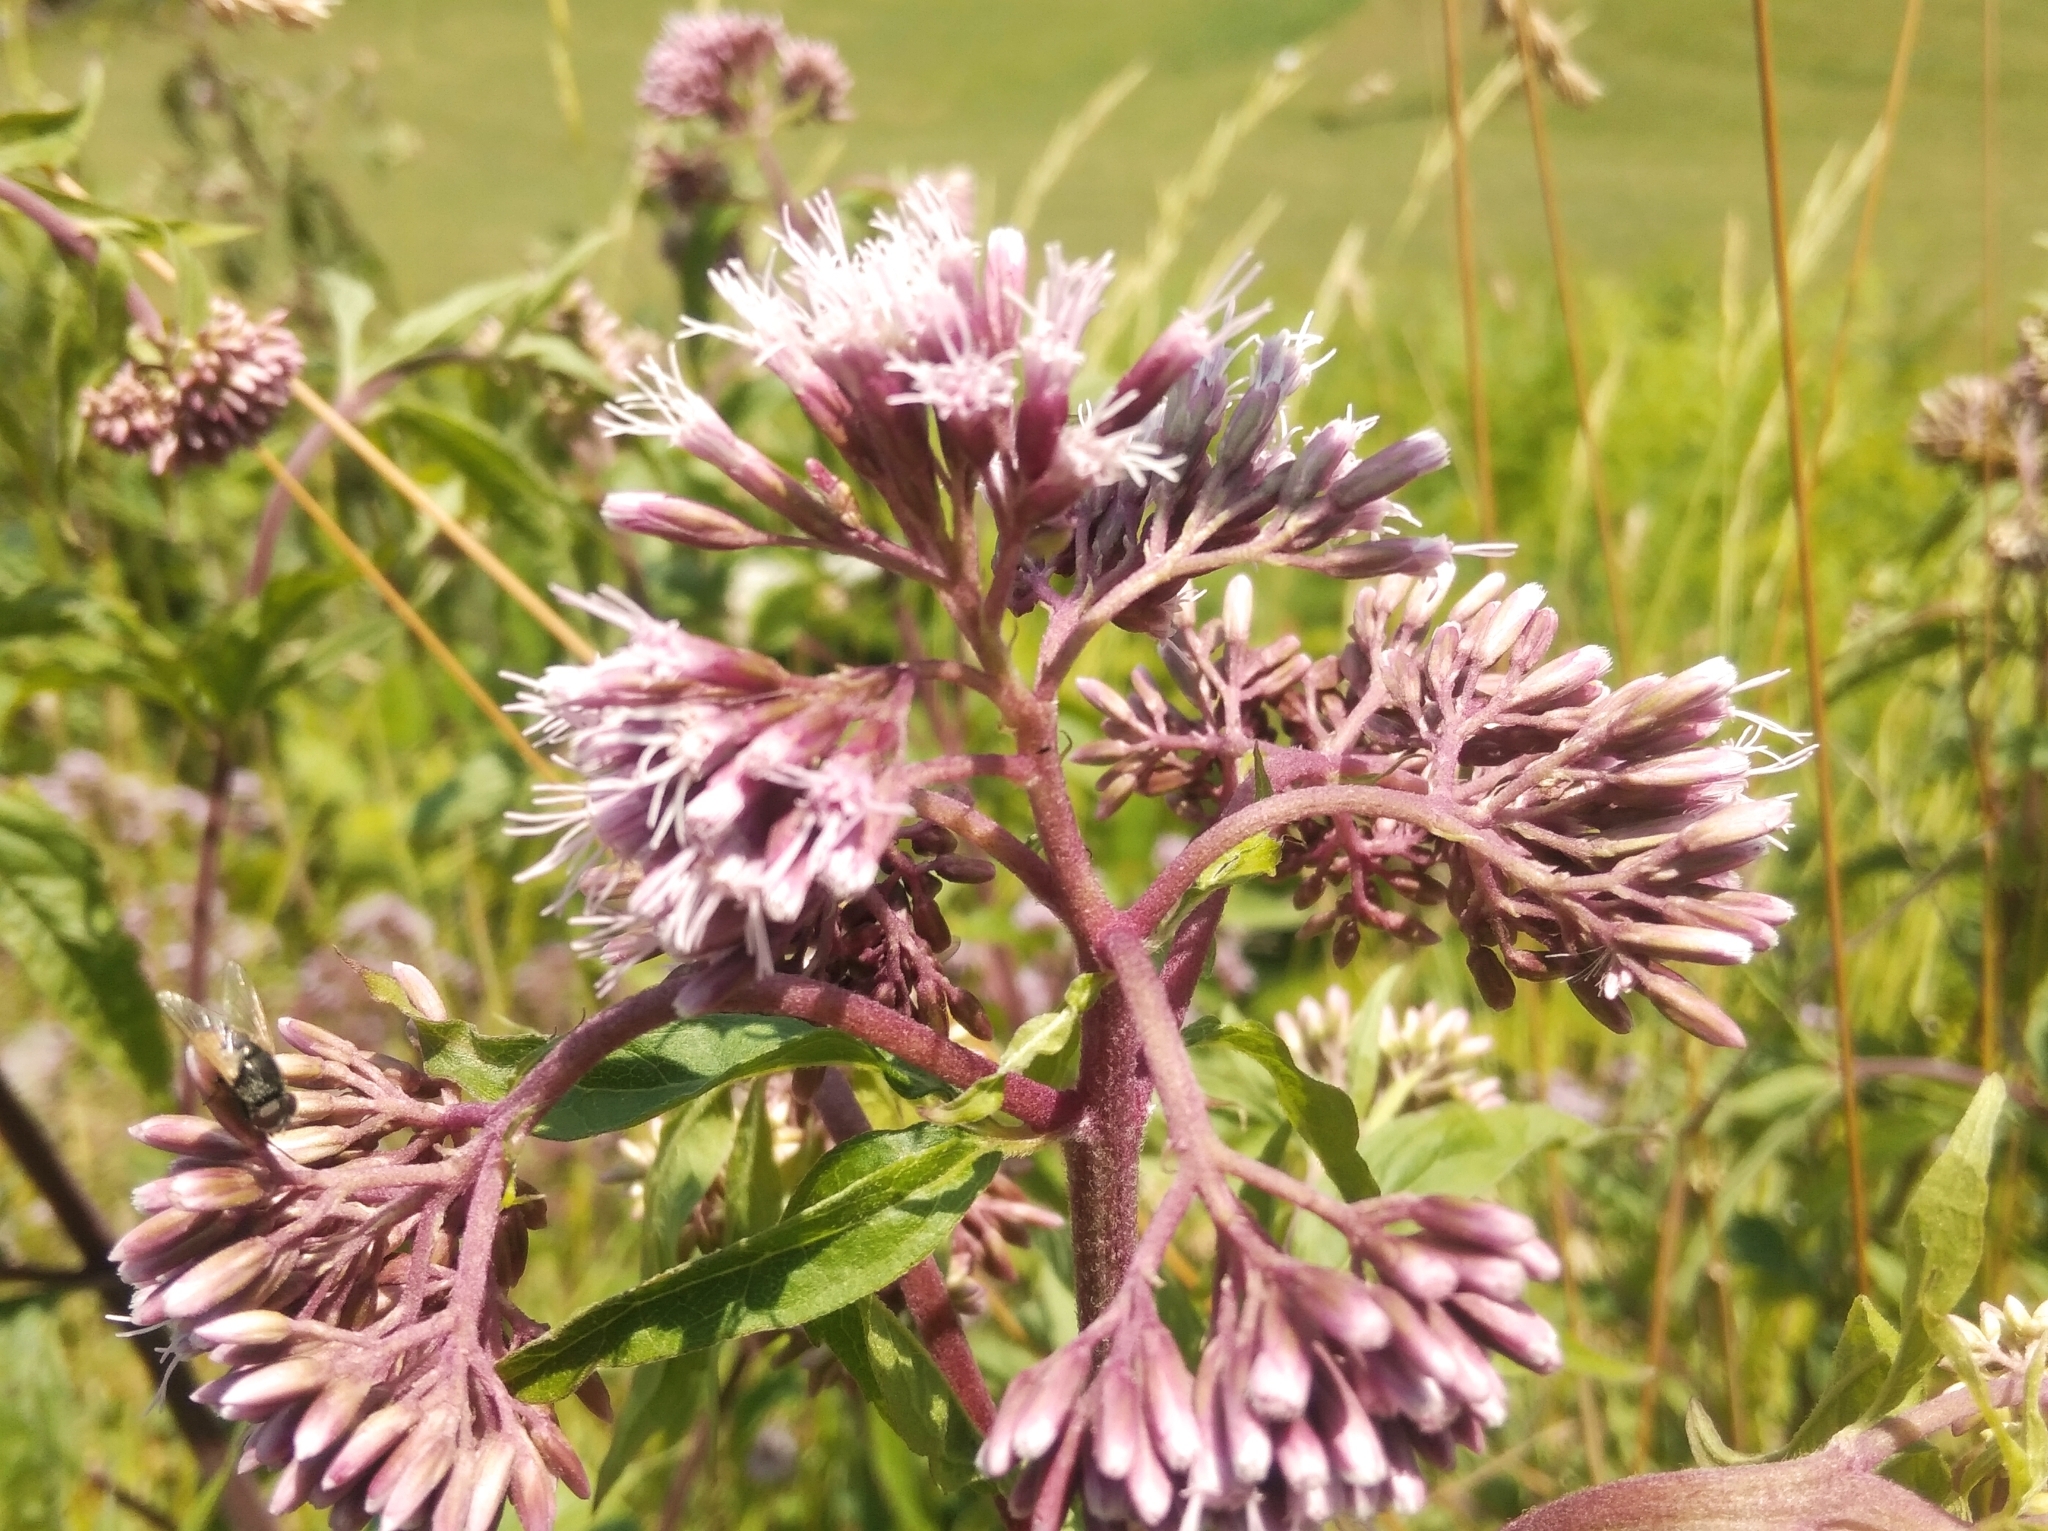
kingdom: Plantae
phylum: Tracheophyta
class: Magnoliopsida
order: Asterales
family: Asteraceae
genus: Eupatorium
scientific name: Eupatorium cannabinum
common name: Hemp-agrimony
